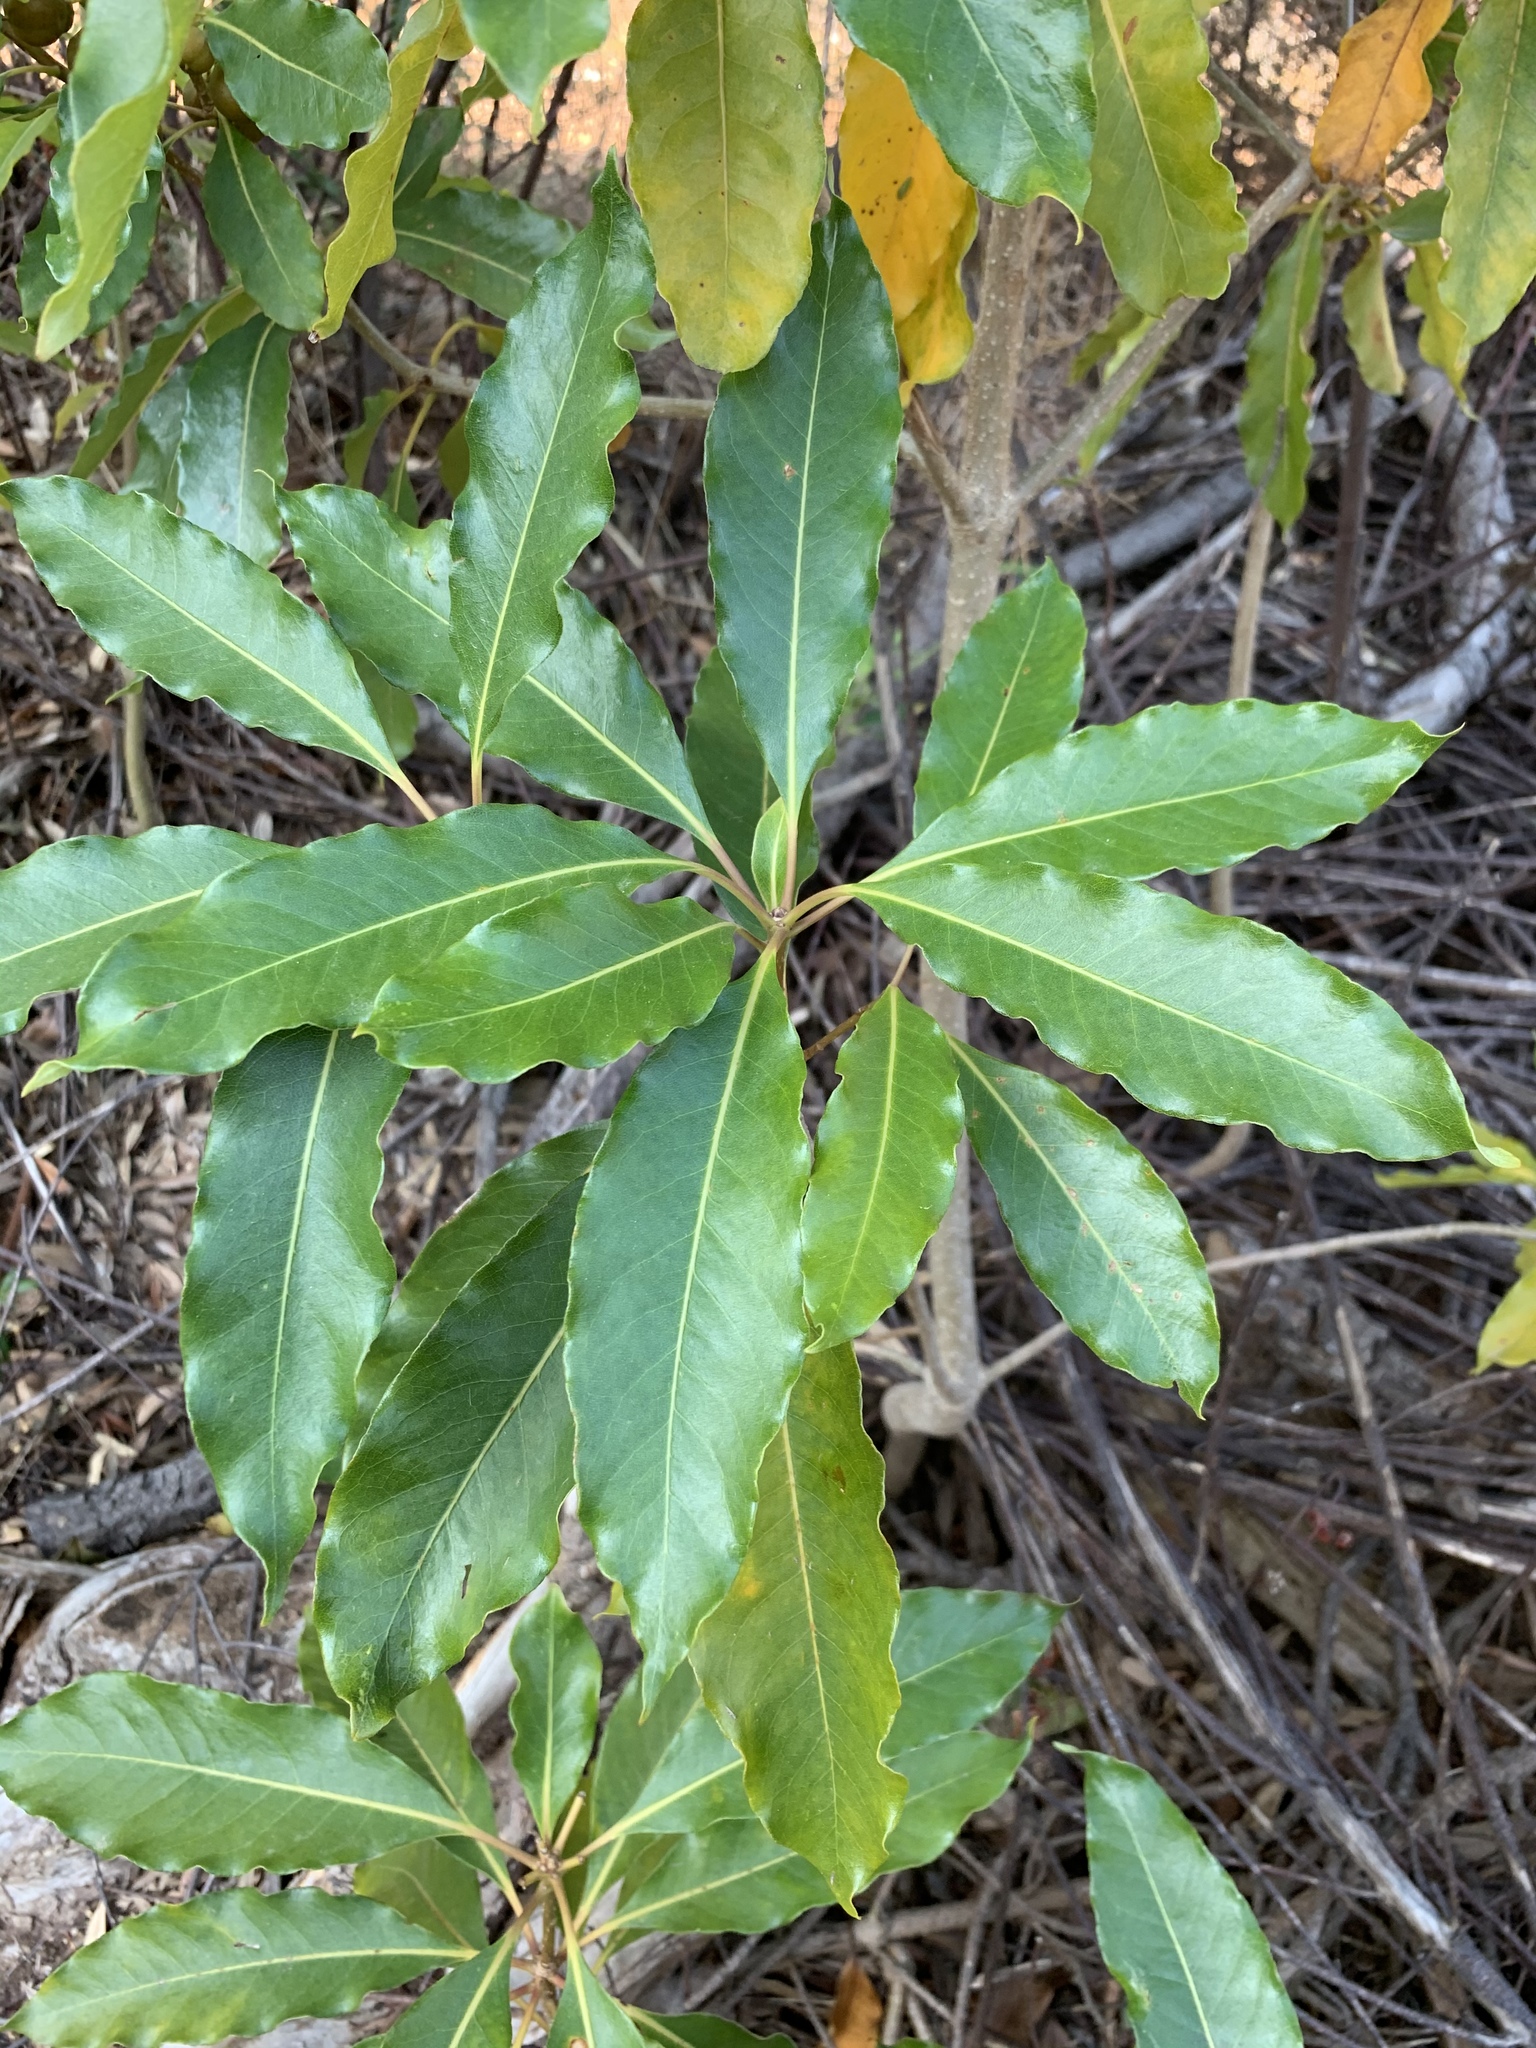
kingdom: Plantae
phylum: Tracheophyta
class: Magnoliopsida
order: Apiales
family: Pittosporaceae
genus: Pittosporum
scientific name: Pittosporum undulatum
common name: Australian cheesewood
